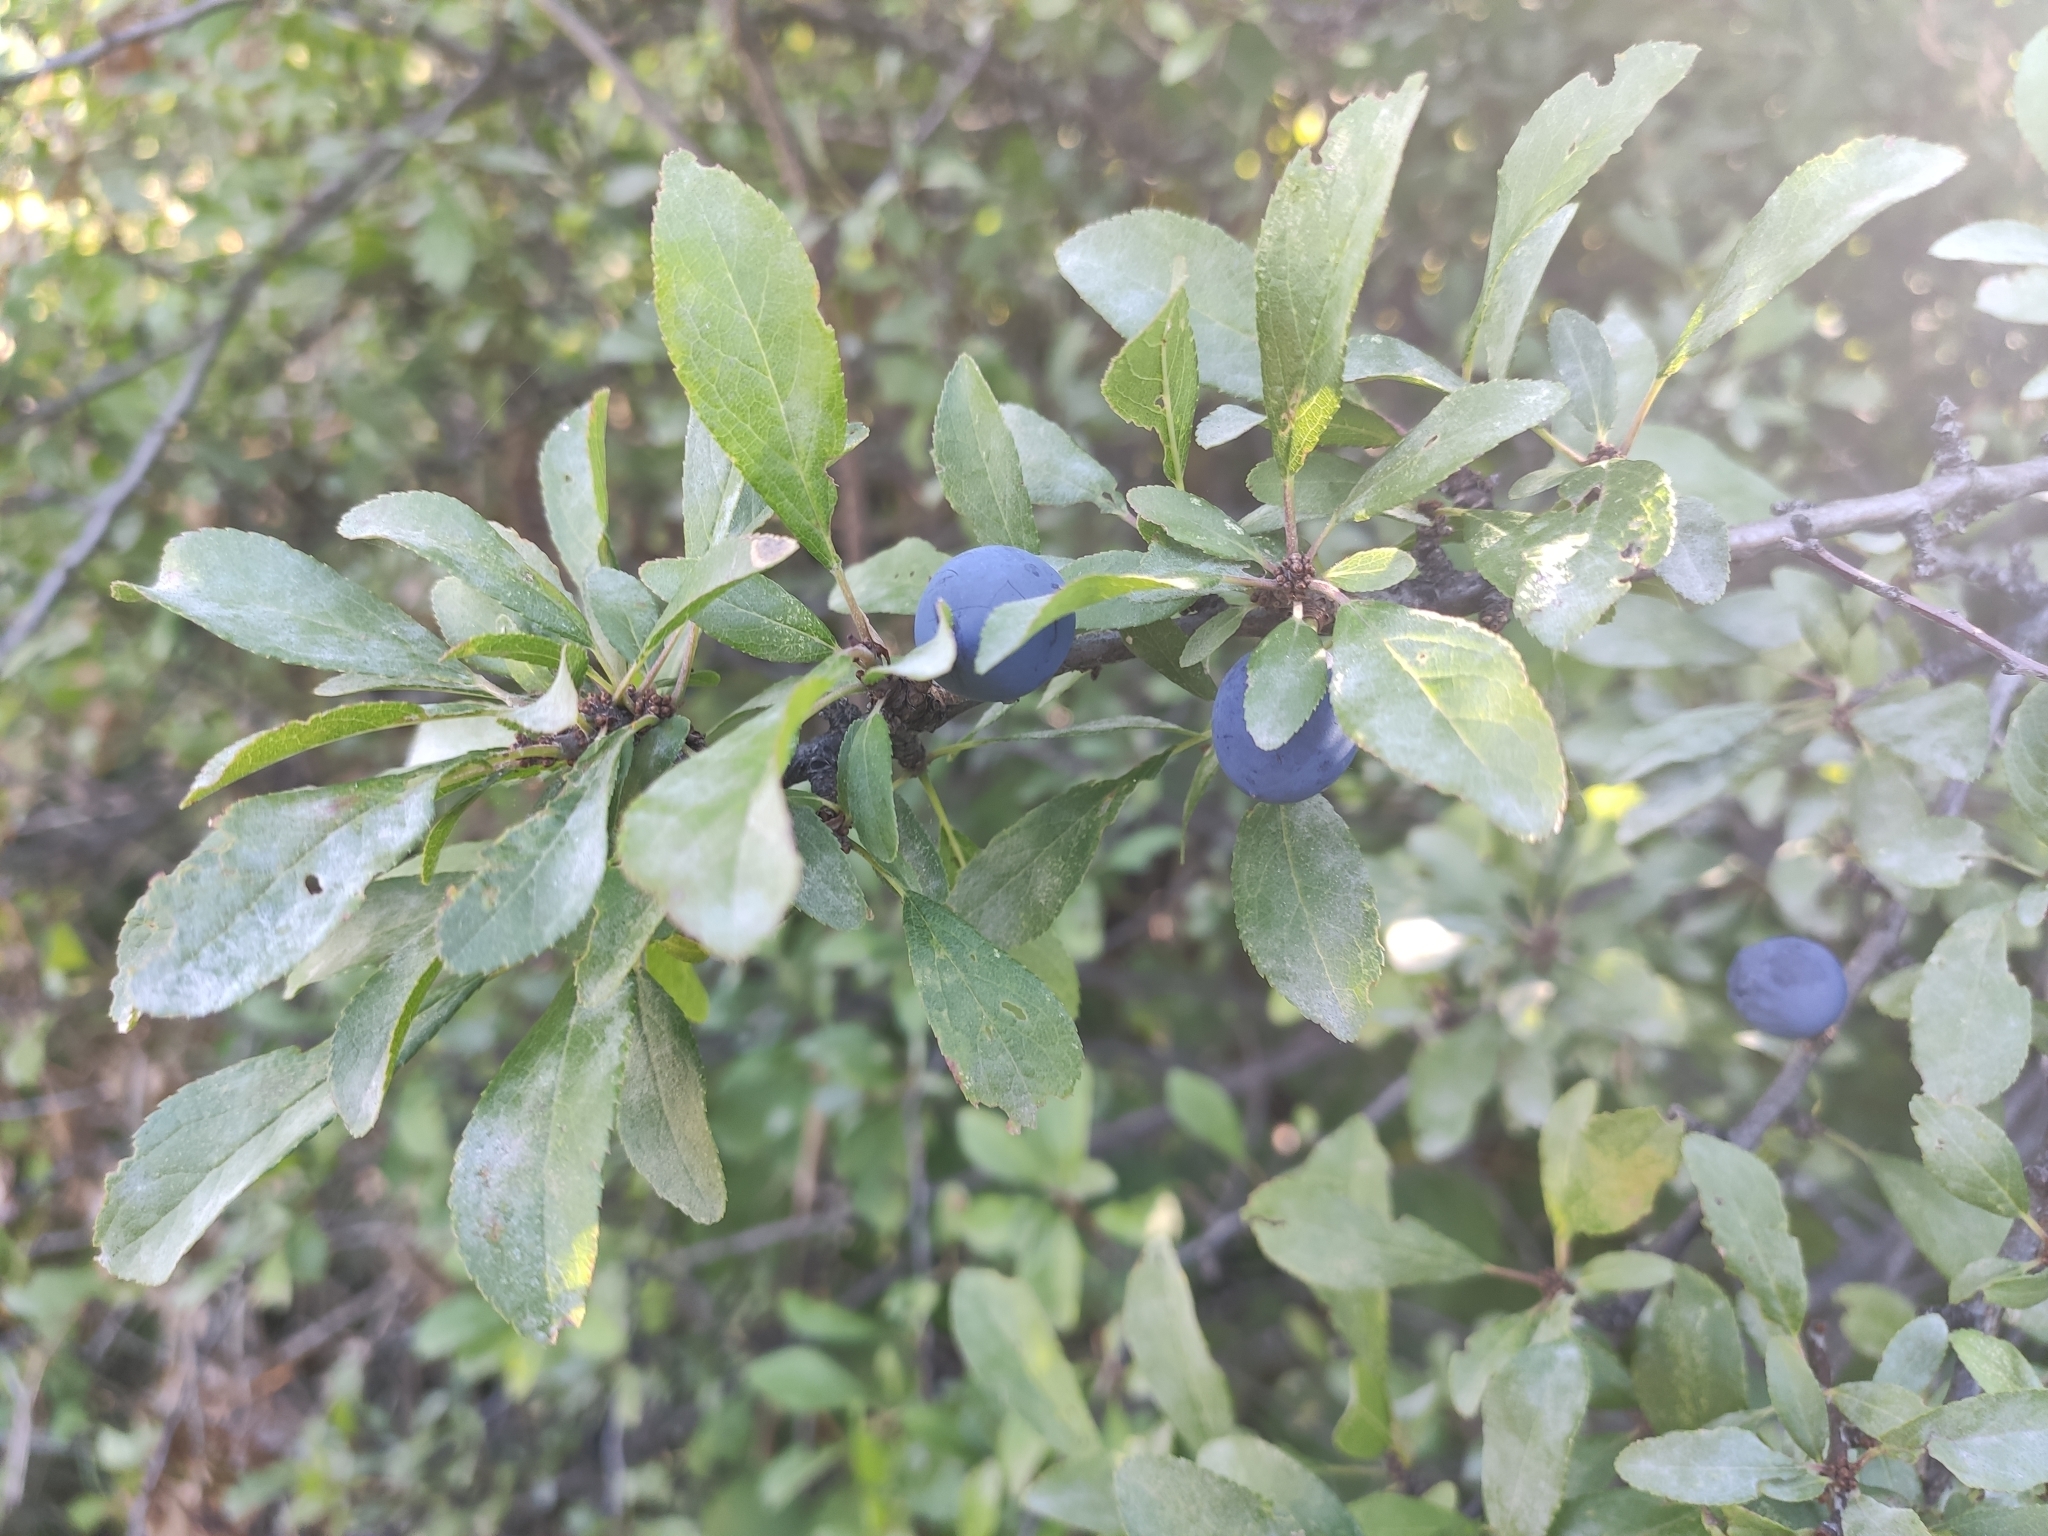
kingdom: Plantae
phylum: Tracheophyta
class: Magnoliopsida
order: Rosales
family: Rosaceae
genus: Prunus
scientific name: Prunus spinosa
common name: Blackthorn
